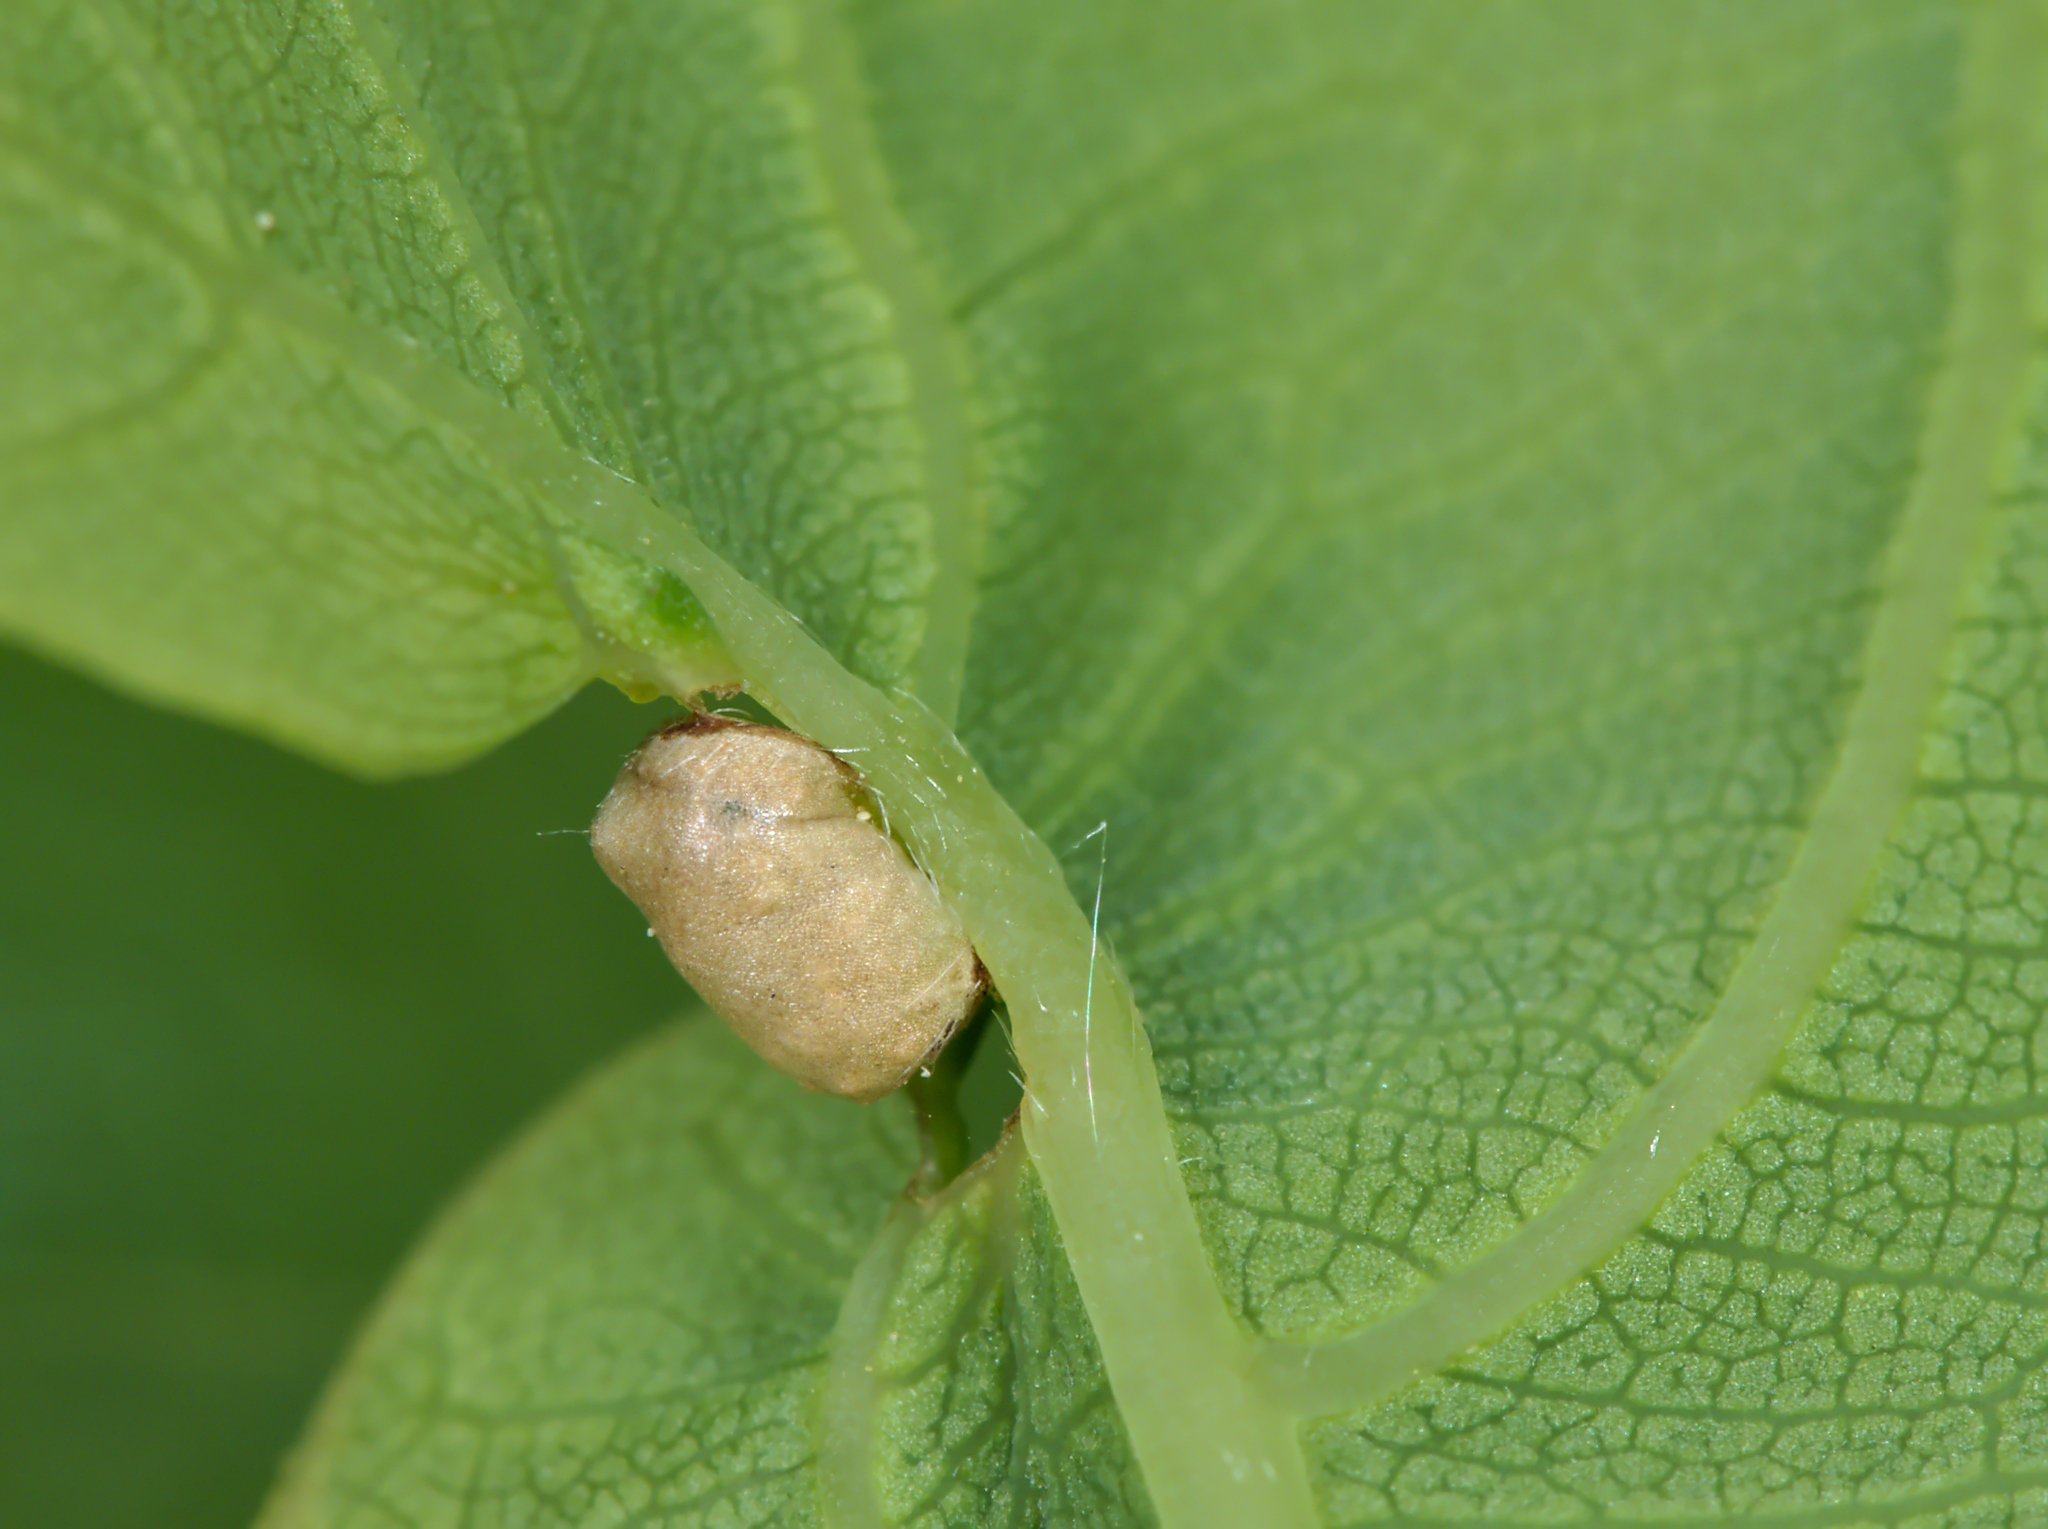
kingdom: Animalia
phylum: Arthropoda
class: Insecta
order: Hymenoptera
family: Cynipidae
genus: Neuroterus
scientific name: Neuroterus albipes
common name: Smooth spangle gall
